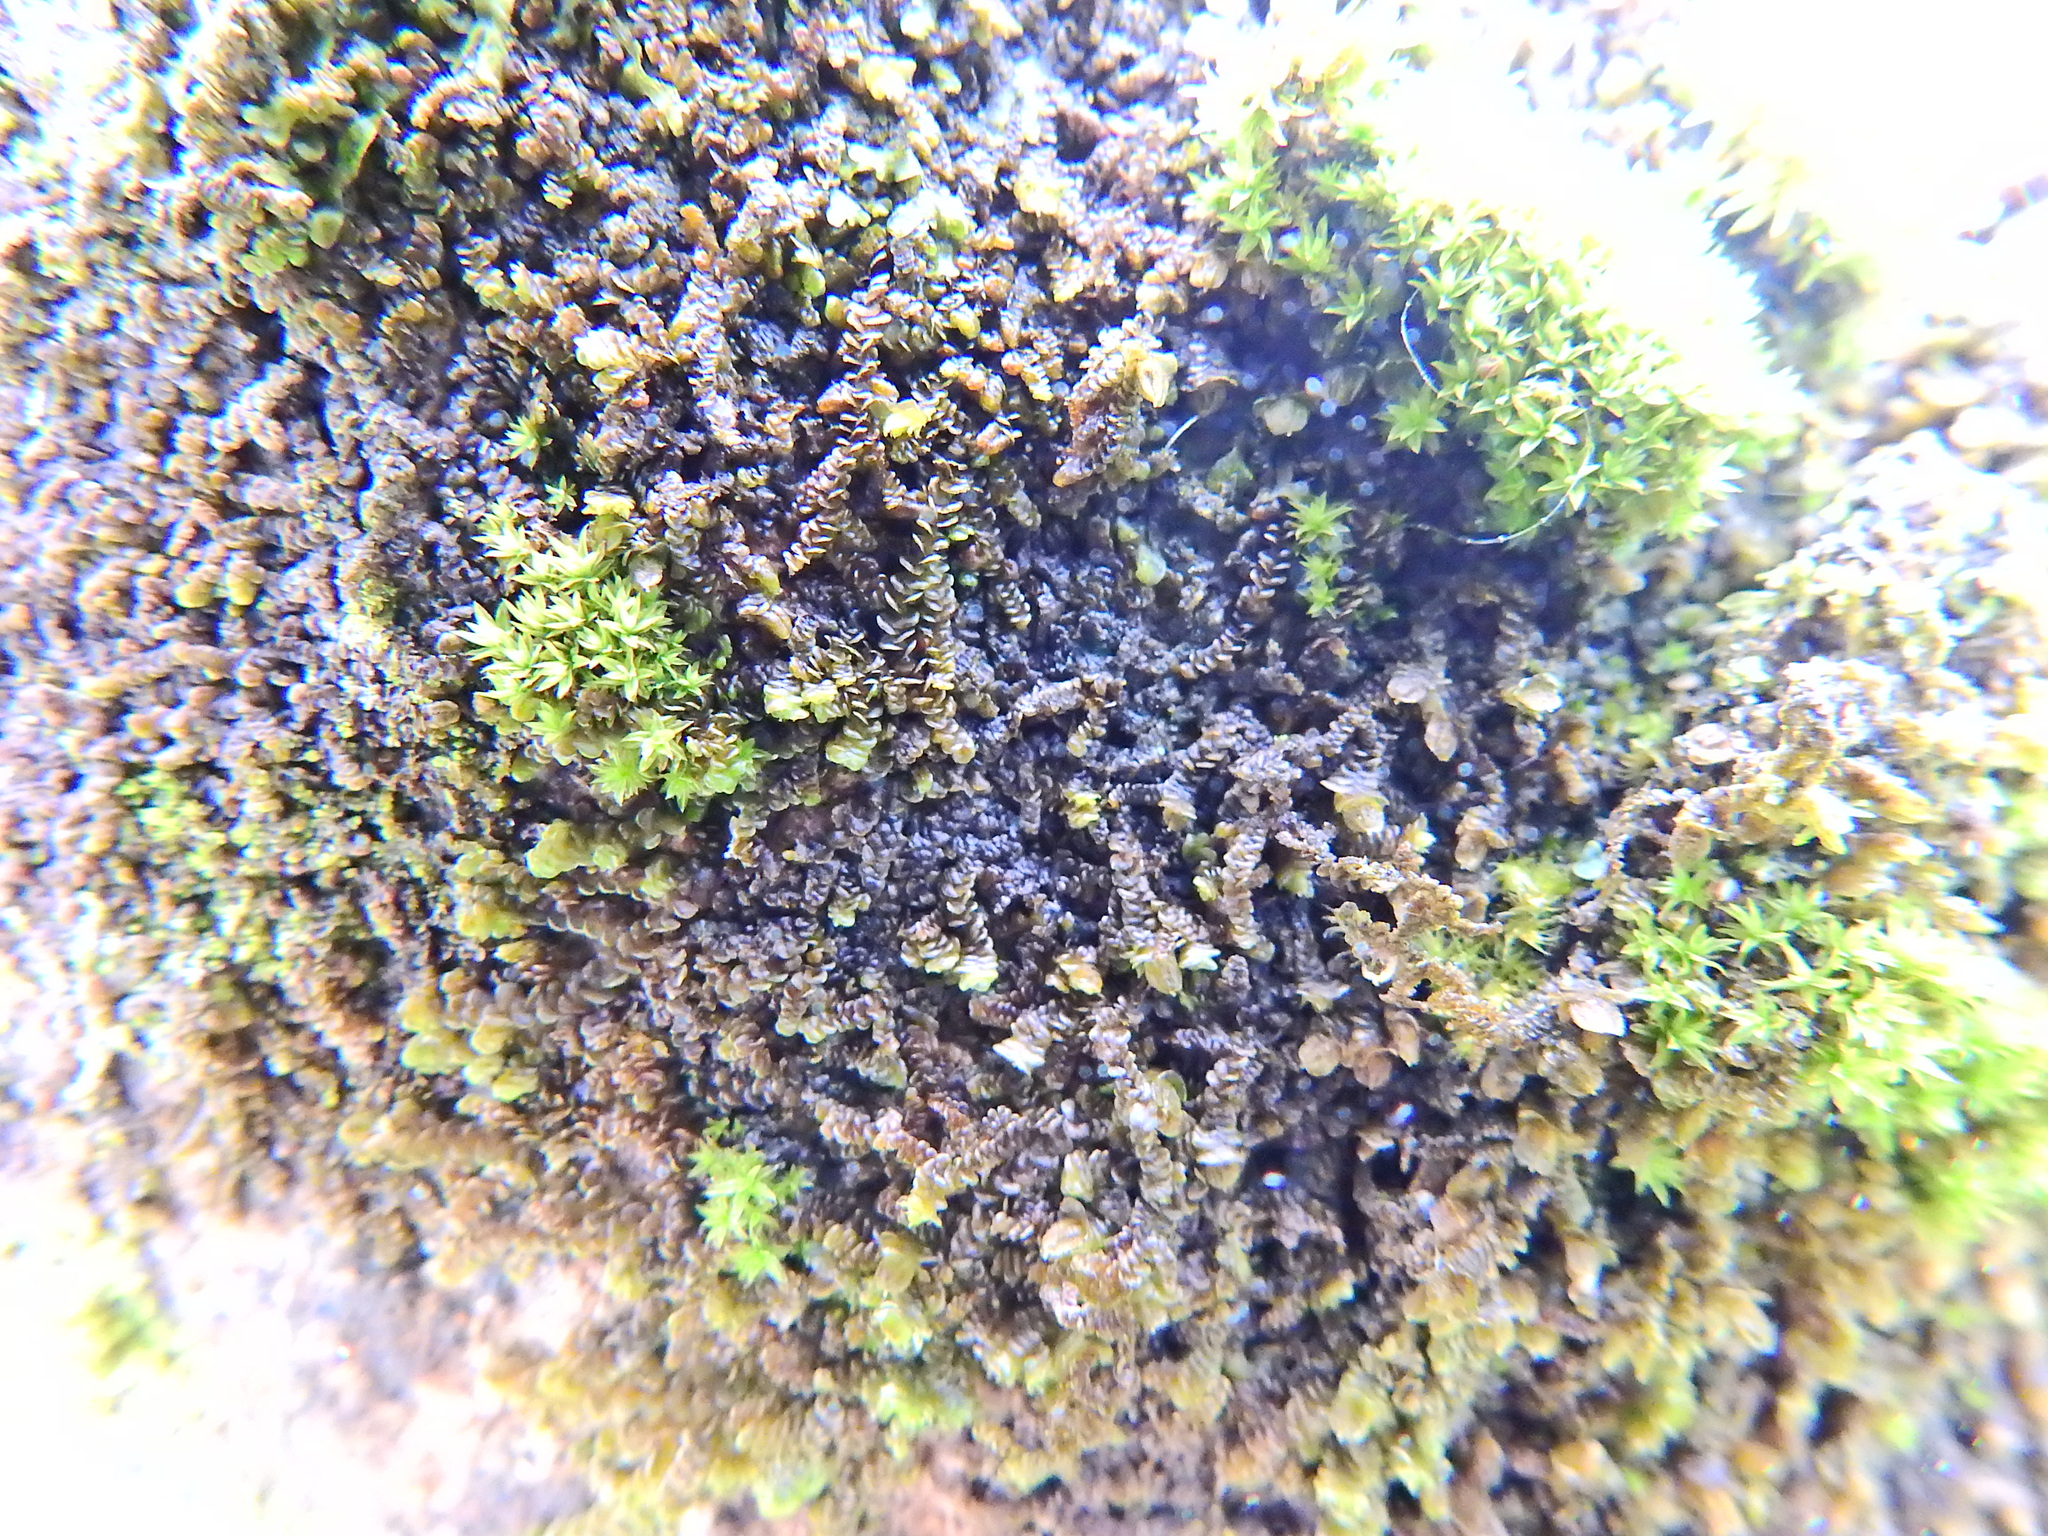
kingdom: Plantae
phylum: Marchantiophyta
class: Jungermanniopsida
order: Porellales
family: Frullaniaceae
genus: Frullania
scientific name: Frullania dilatata
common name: Dilated scalewort
